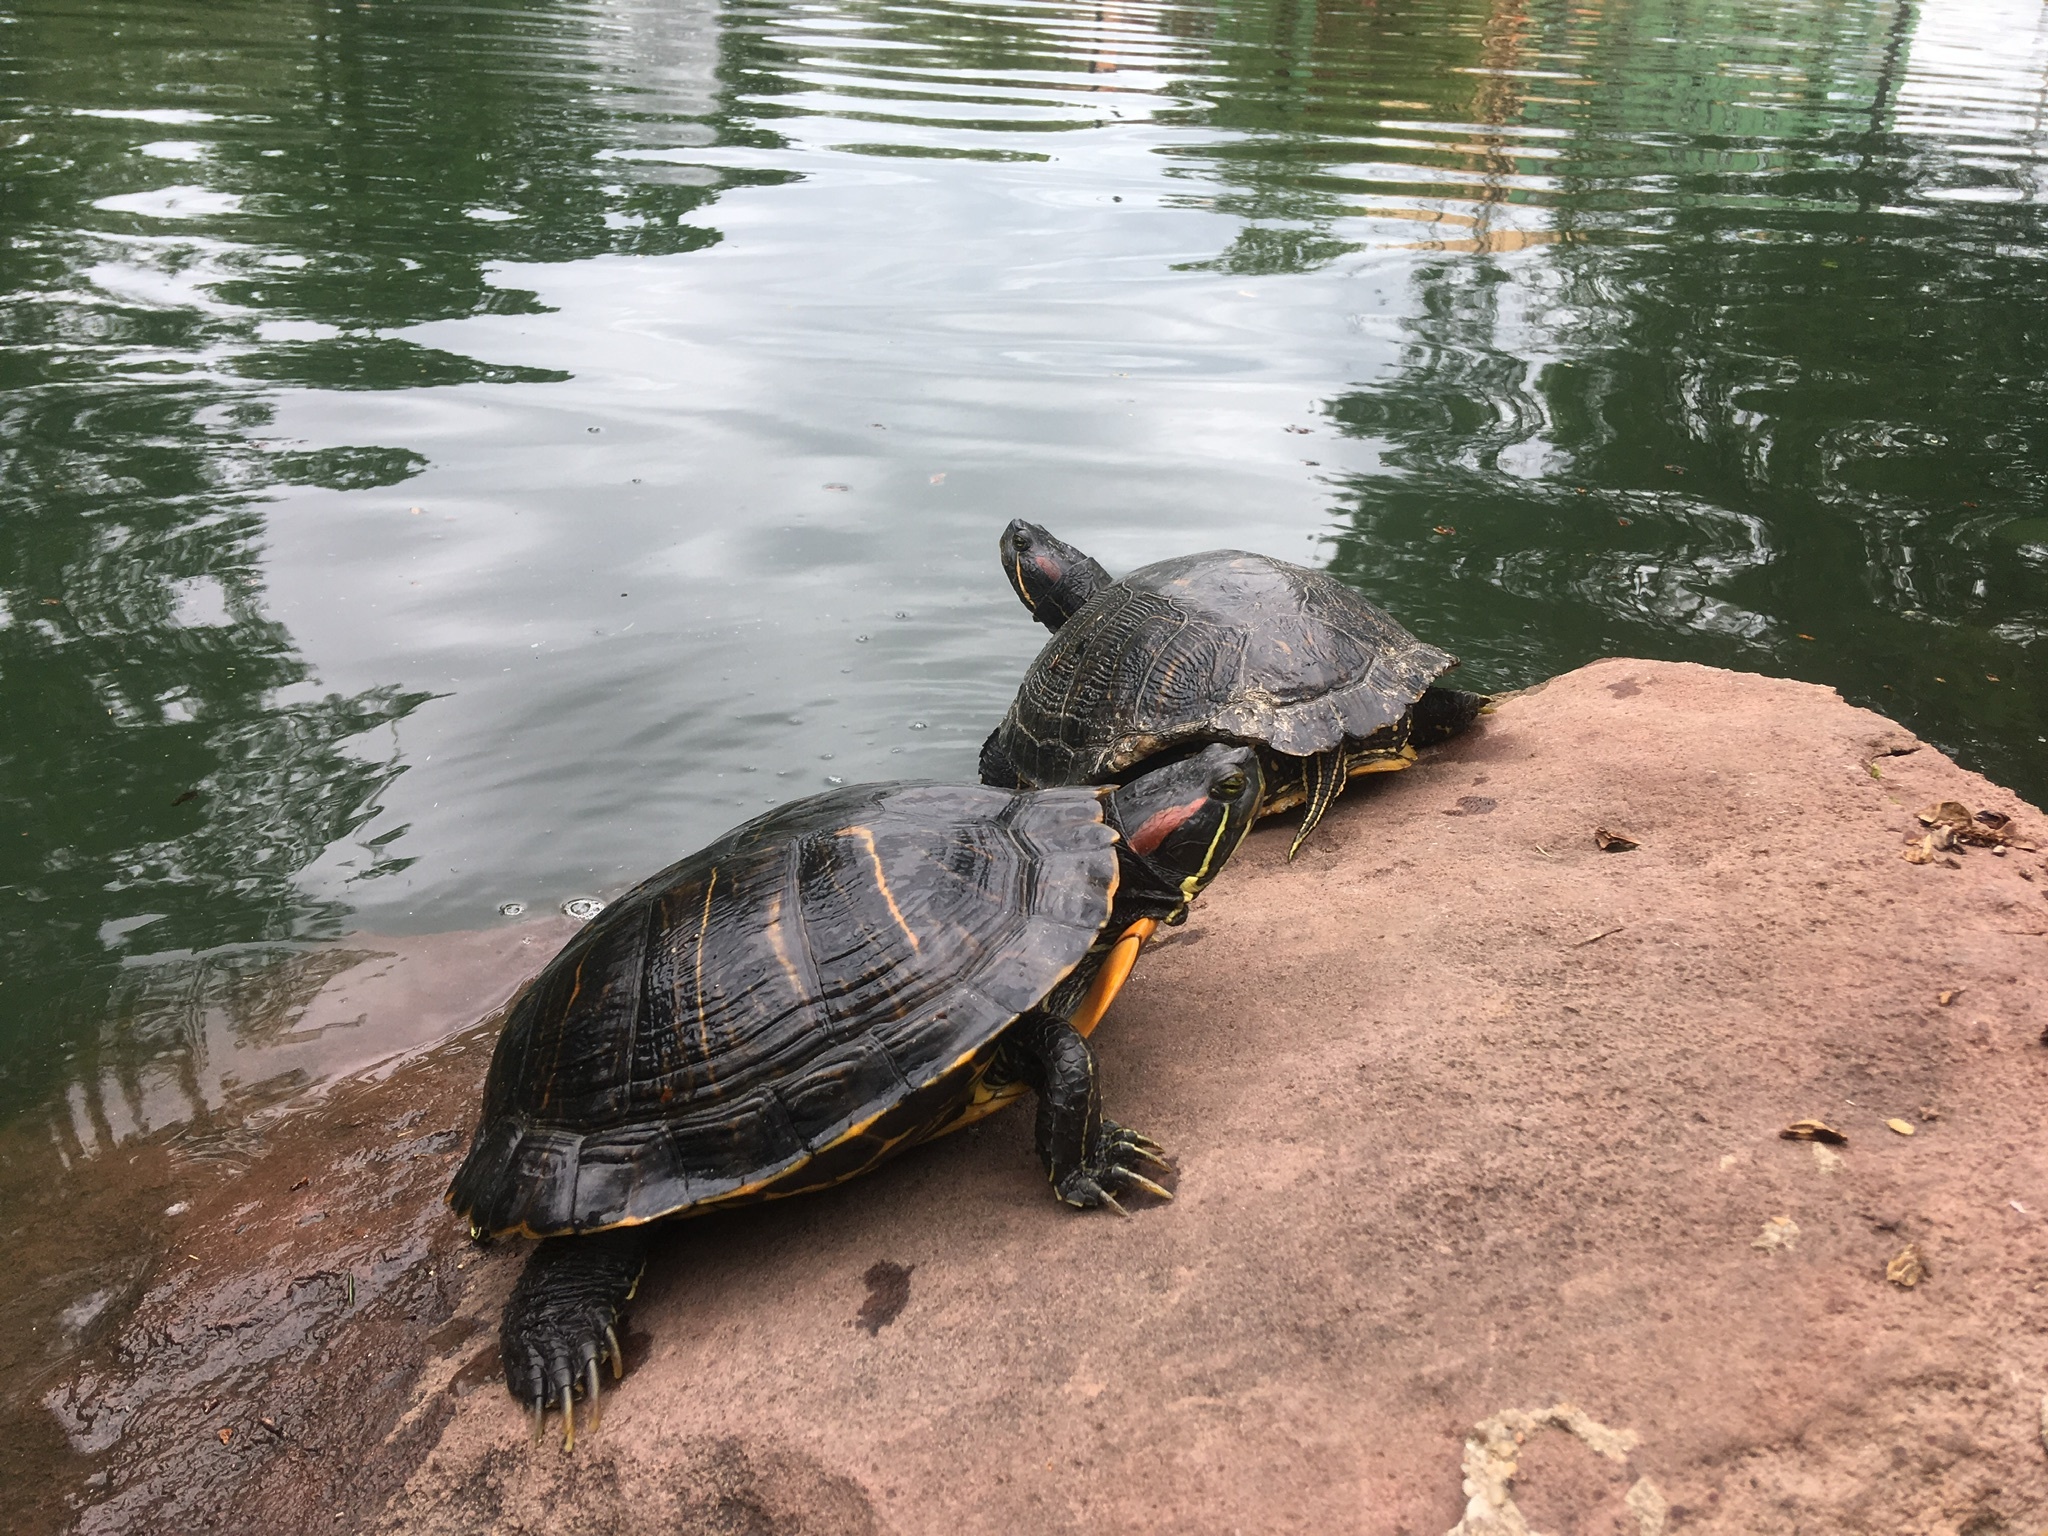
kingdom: Animalia
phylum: Chordata
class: Testudines
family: Emydidae
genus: Trachemys
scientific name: Trachemys scripta
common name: Slider
